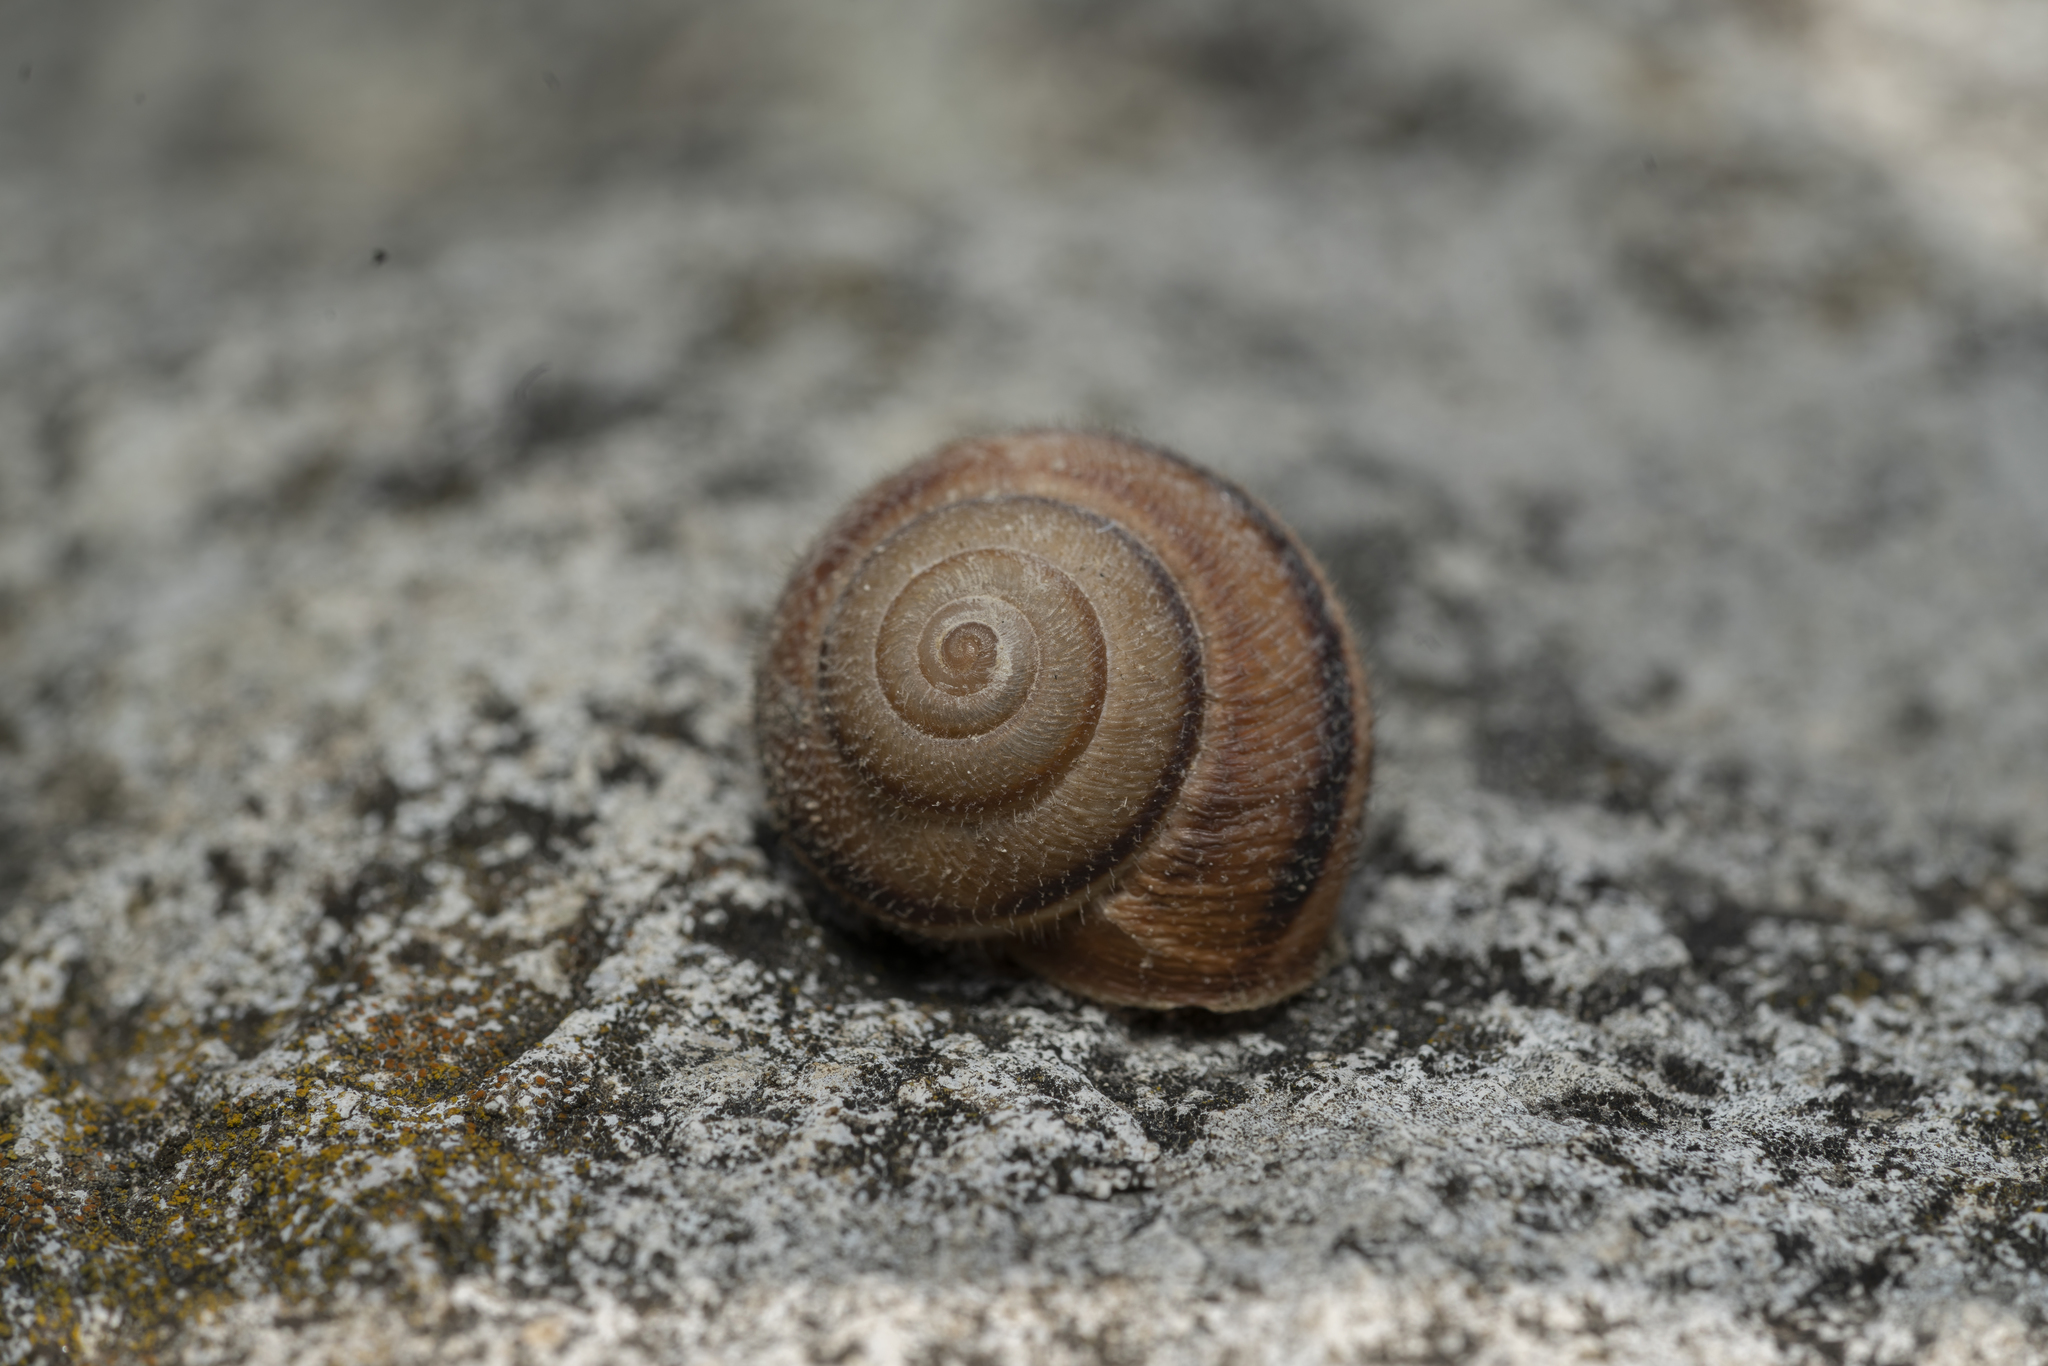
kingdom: Animalia
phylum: Mollusca
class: Gastropoda
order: Stylommatophora
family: Hygromiidae
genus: Metafruticicola
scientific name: Metafruticicola pellita
